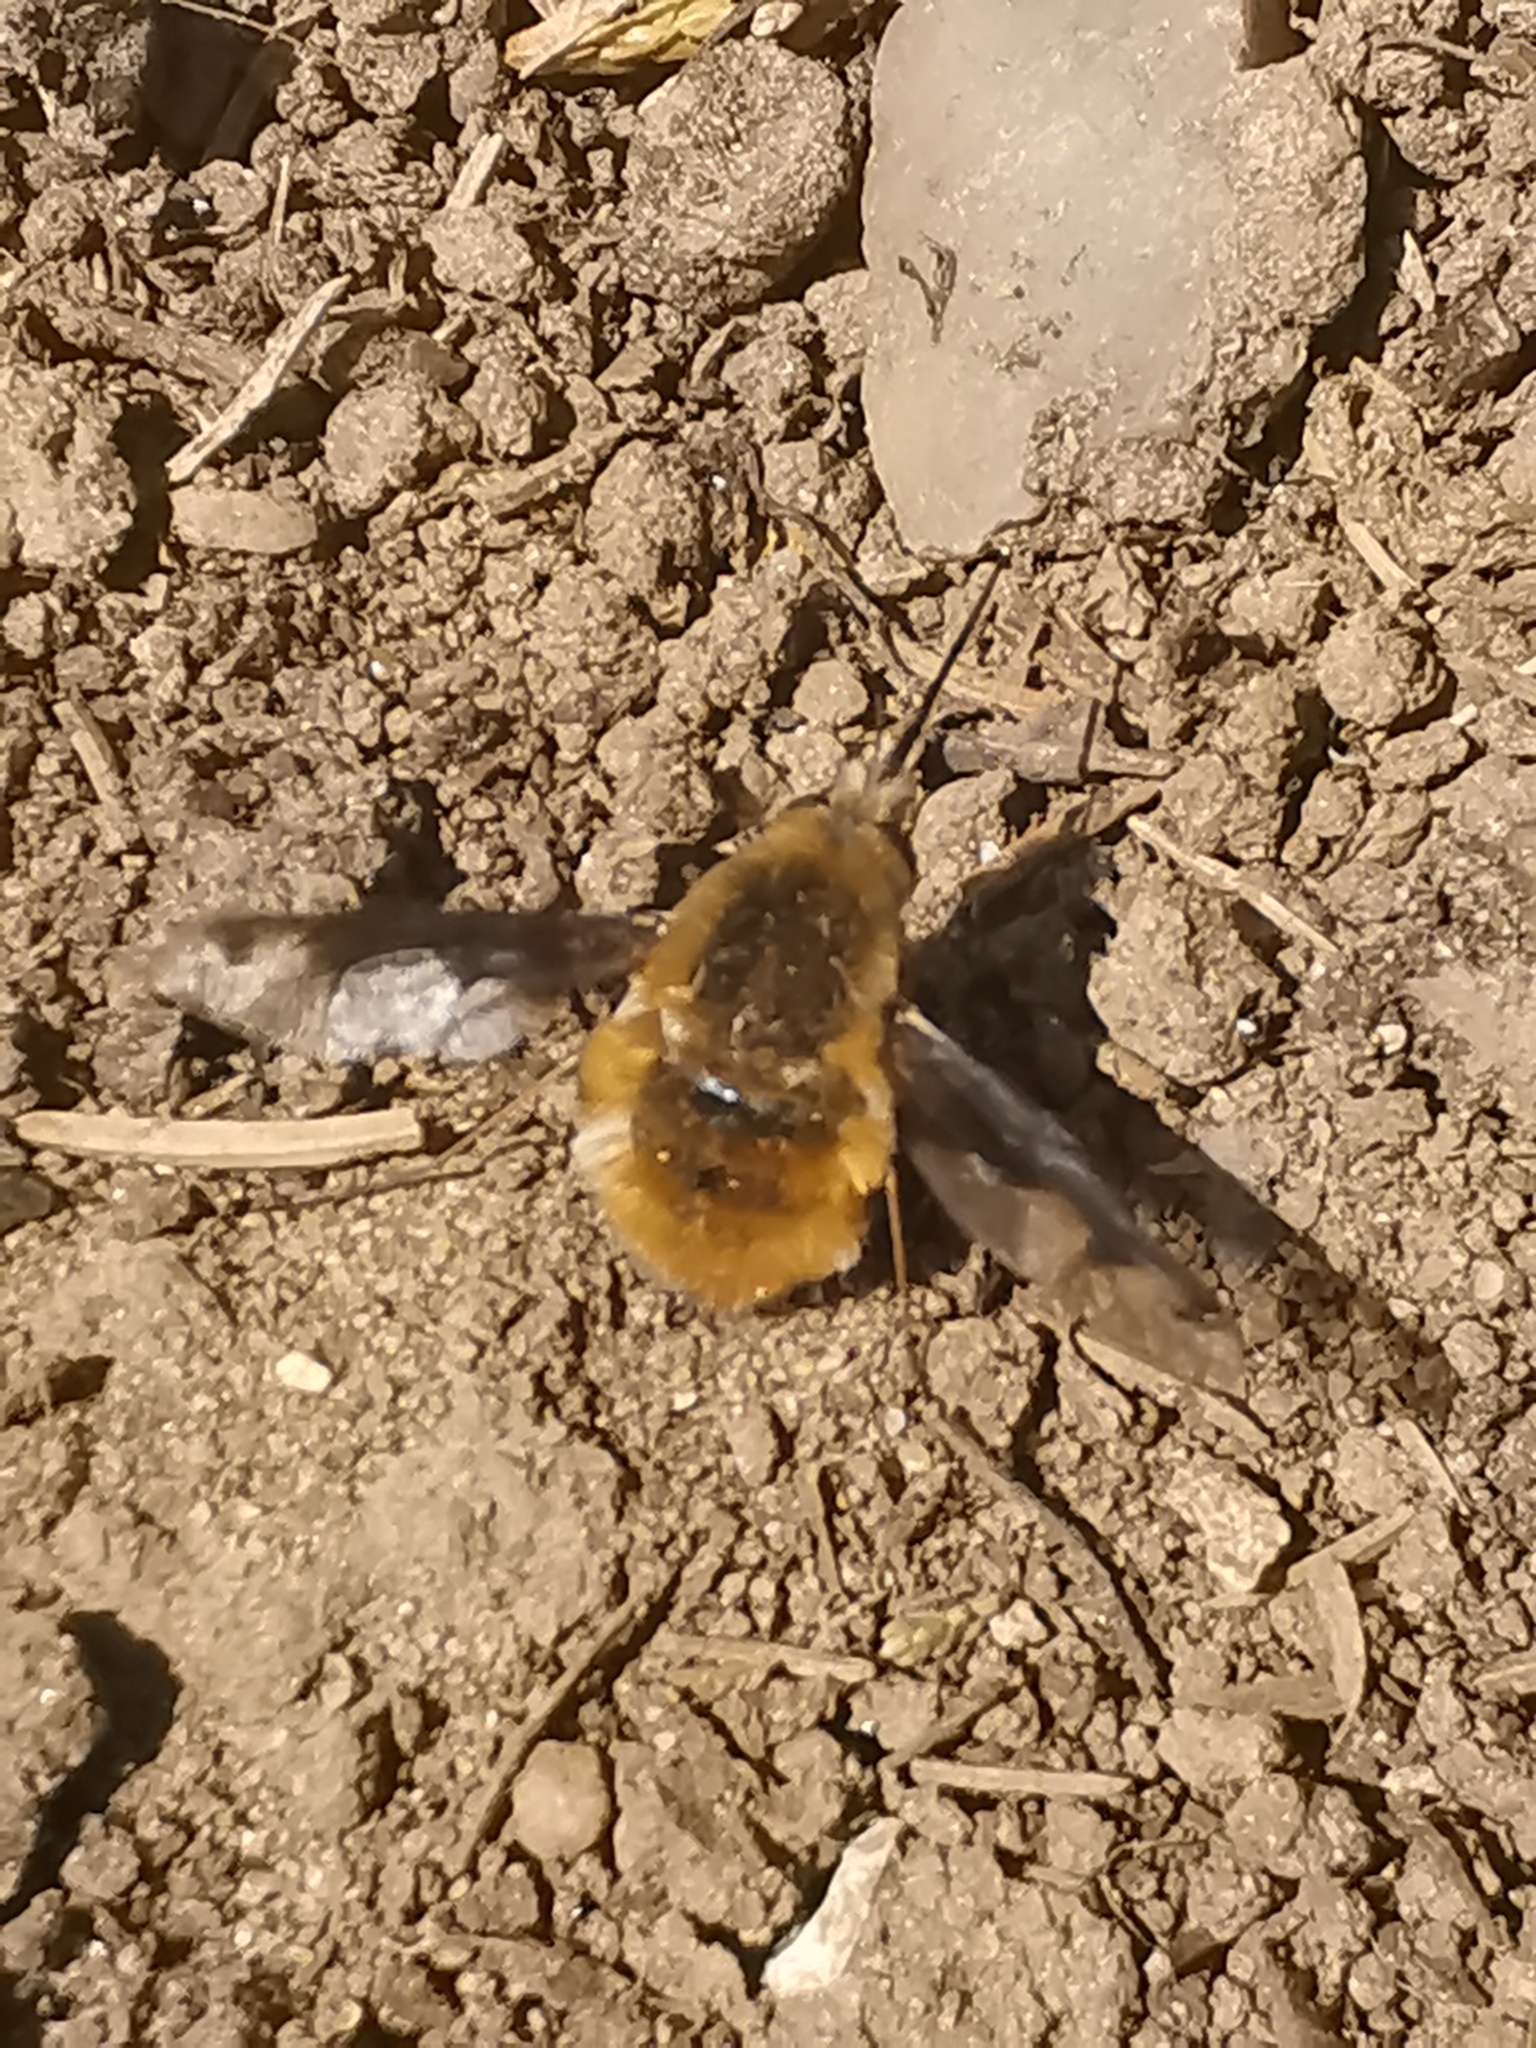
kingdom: Animalia
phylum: Arthropoda
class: Insecta
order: Diptera
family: Bombyliidae
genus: Bombylius
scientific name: Bombylius major
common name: Bee fly
